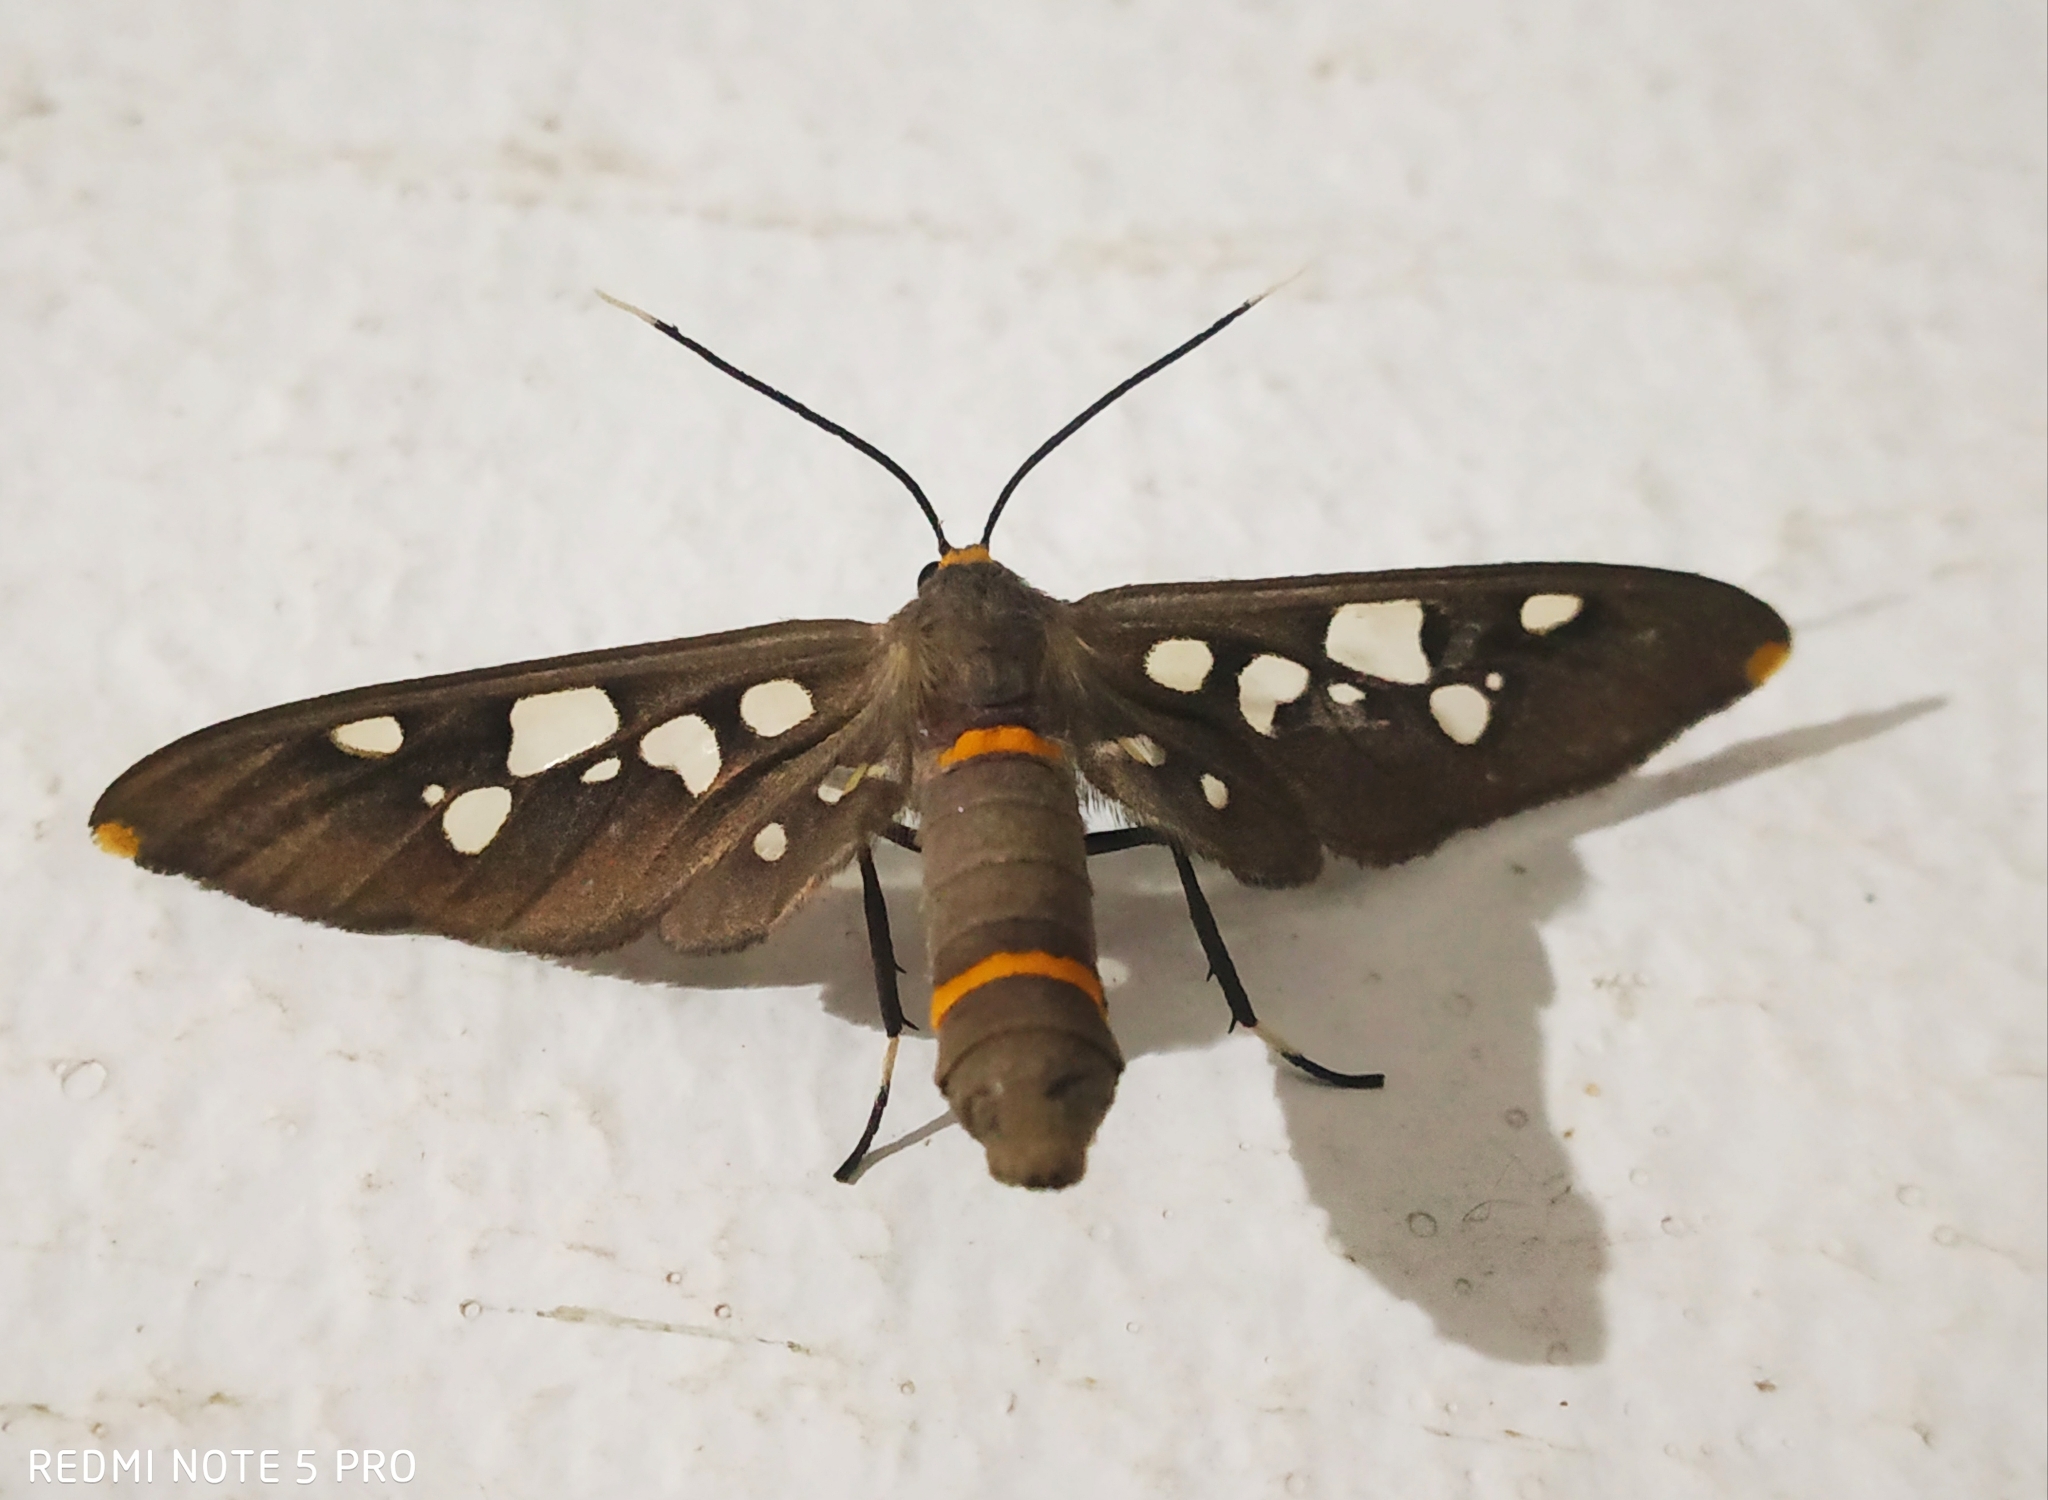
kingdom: Animalia
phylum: Arthropoda
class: Insecta
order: Lepidoptera
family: Erebidae
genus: Amata
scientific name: Amata cyssea
